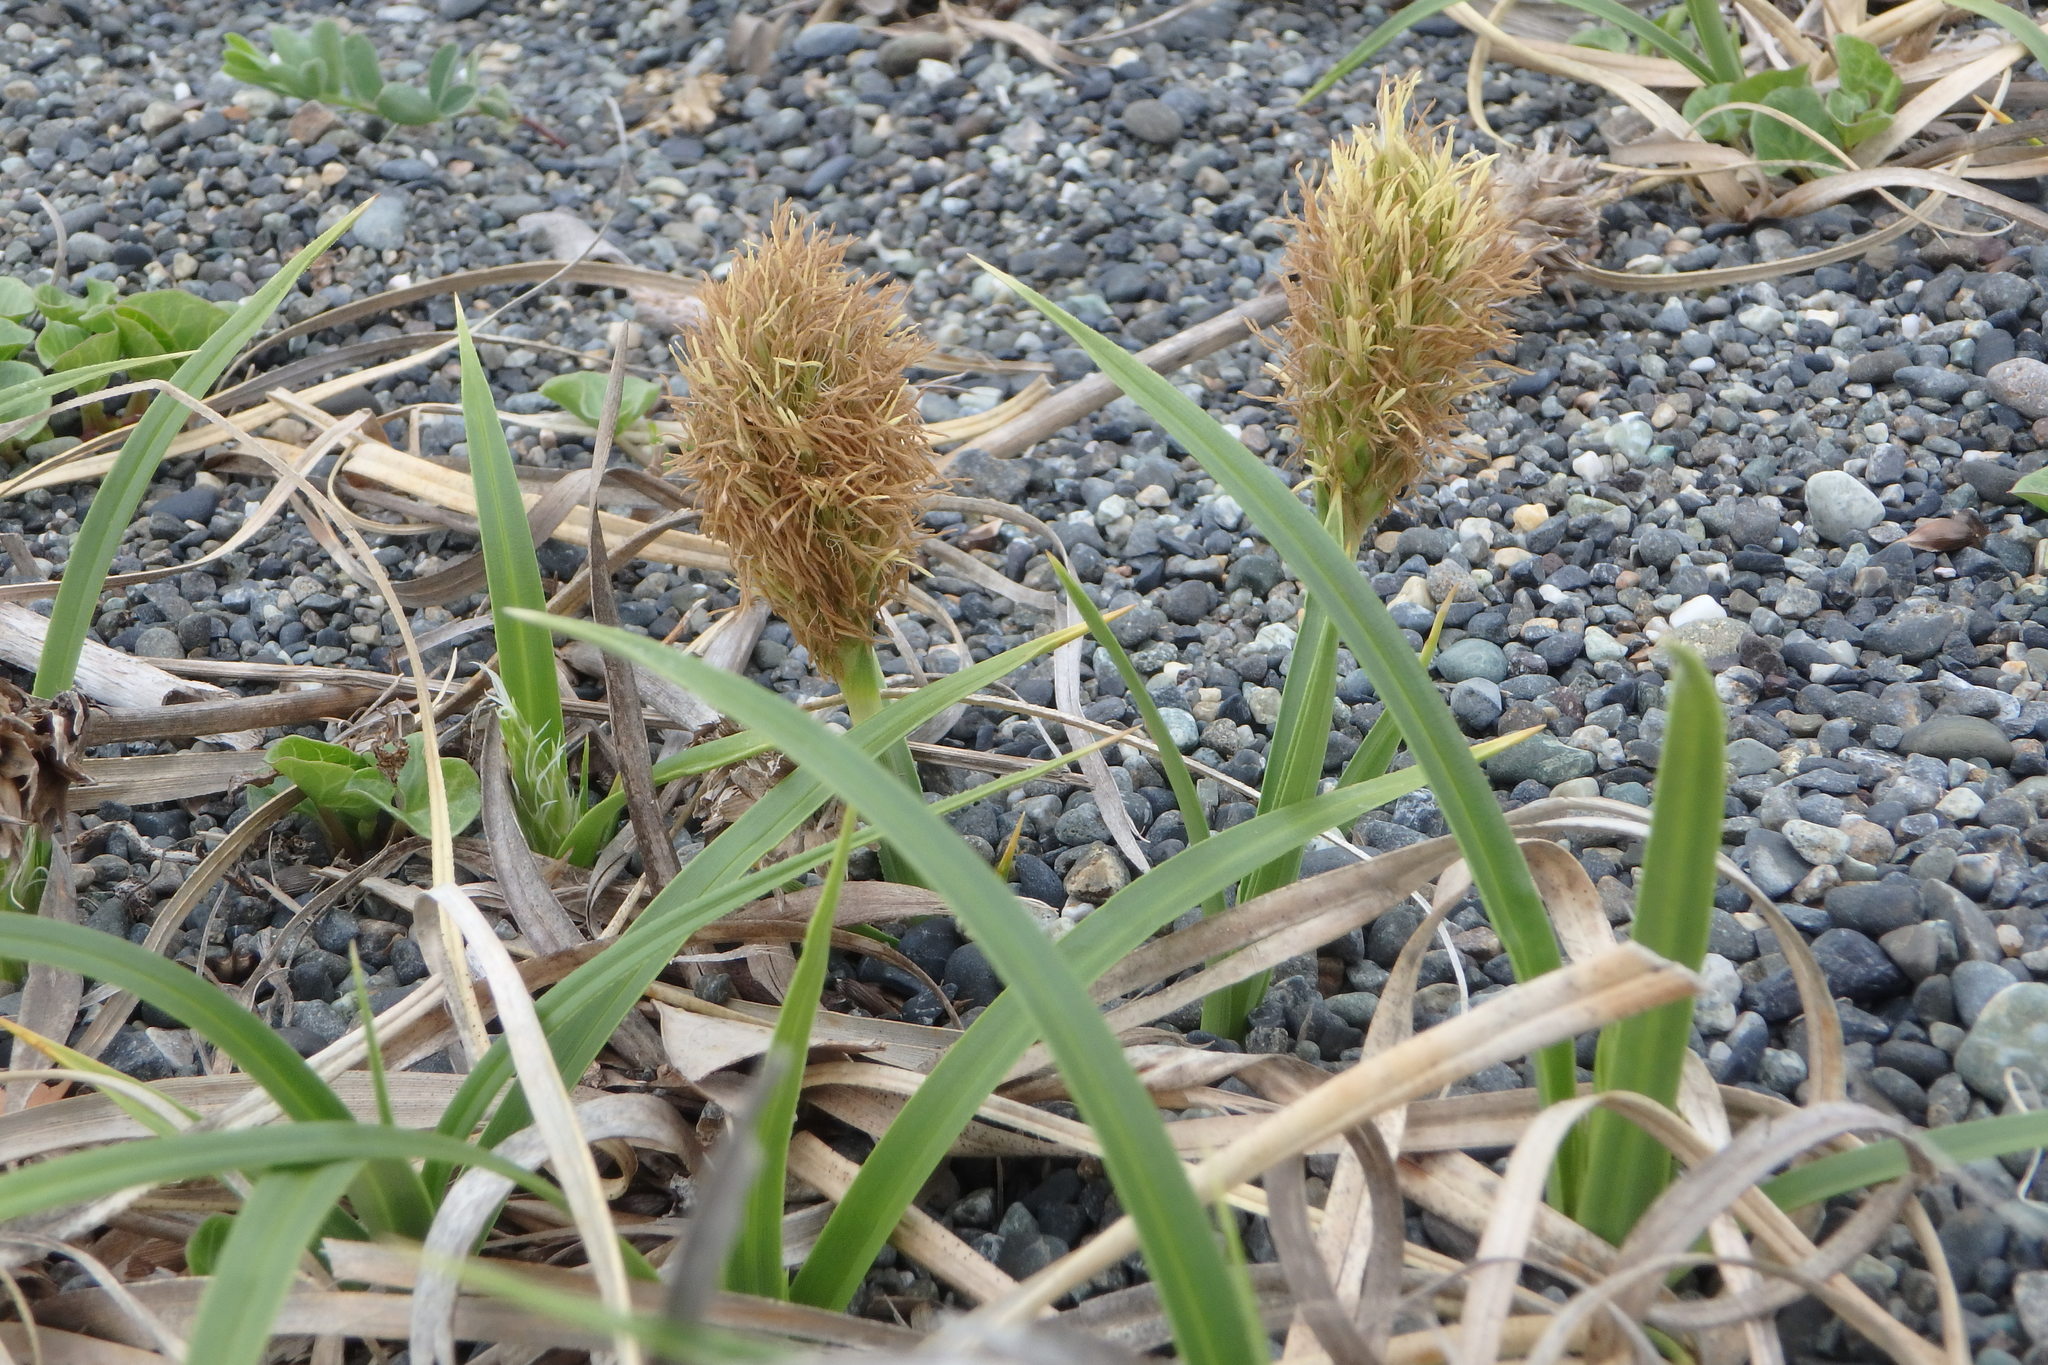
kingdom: Plantae
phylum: Tracheophyta
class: Liliopsida
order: Poales
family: Cyperaceae
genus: Carex
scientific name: Carex kobomugi
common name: Japanese sedge
